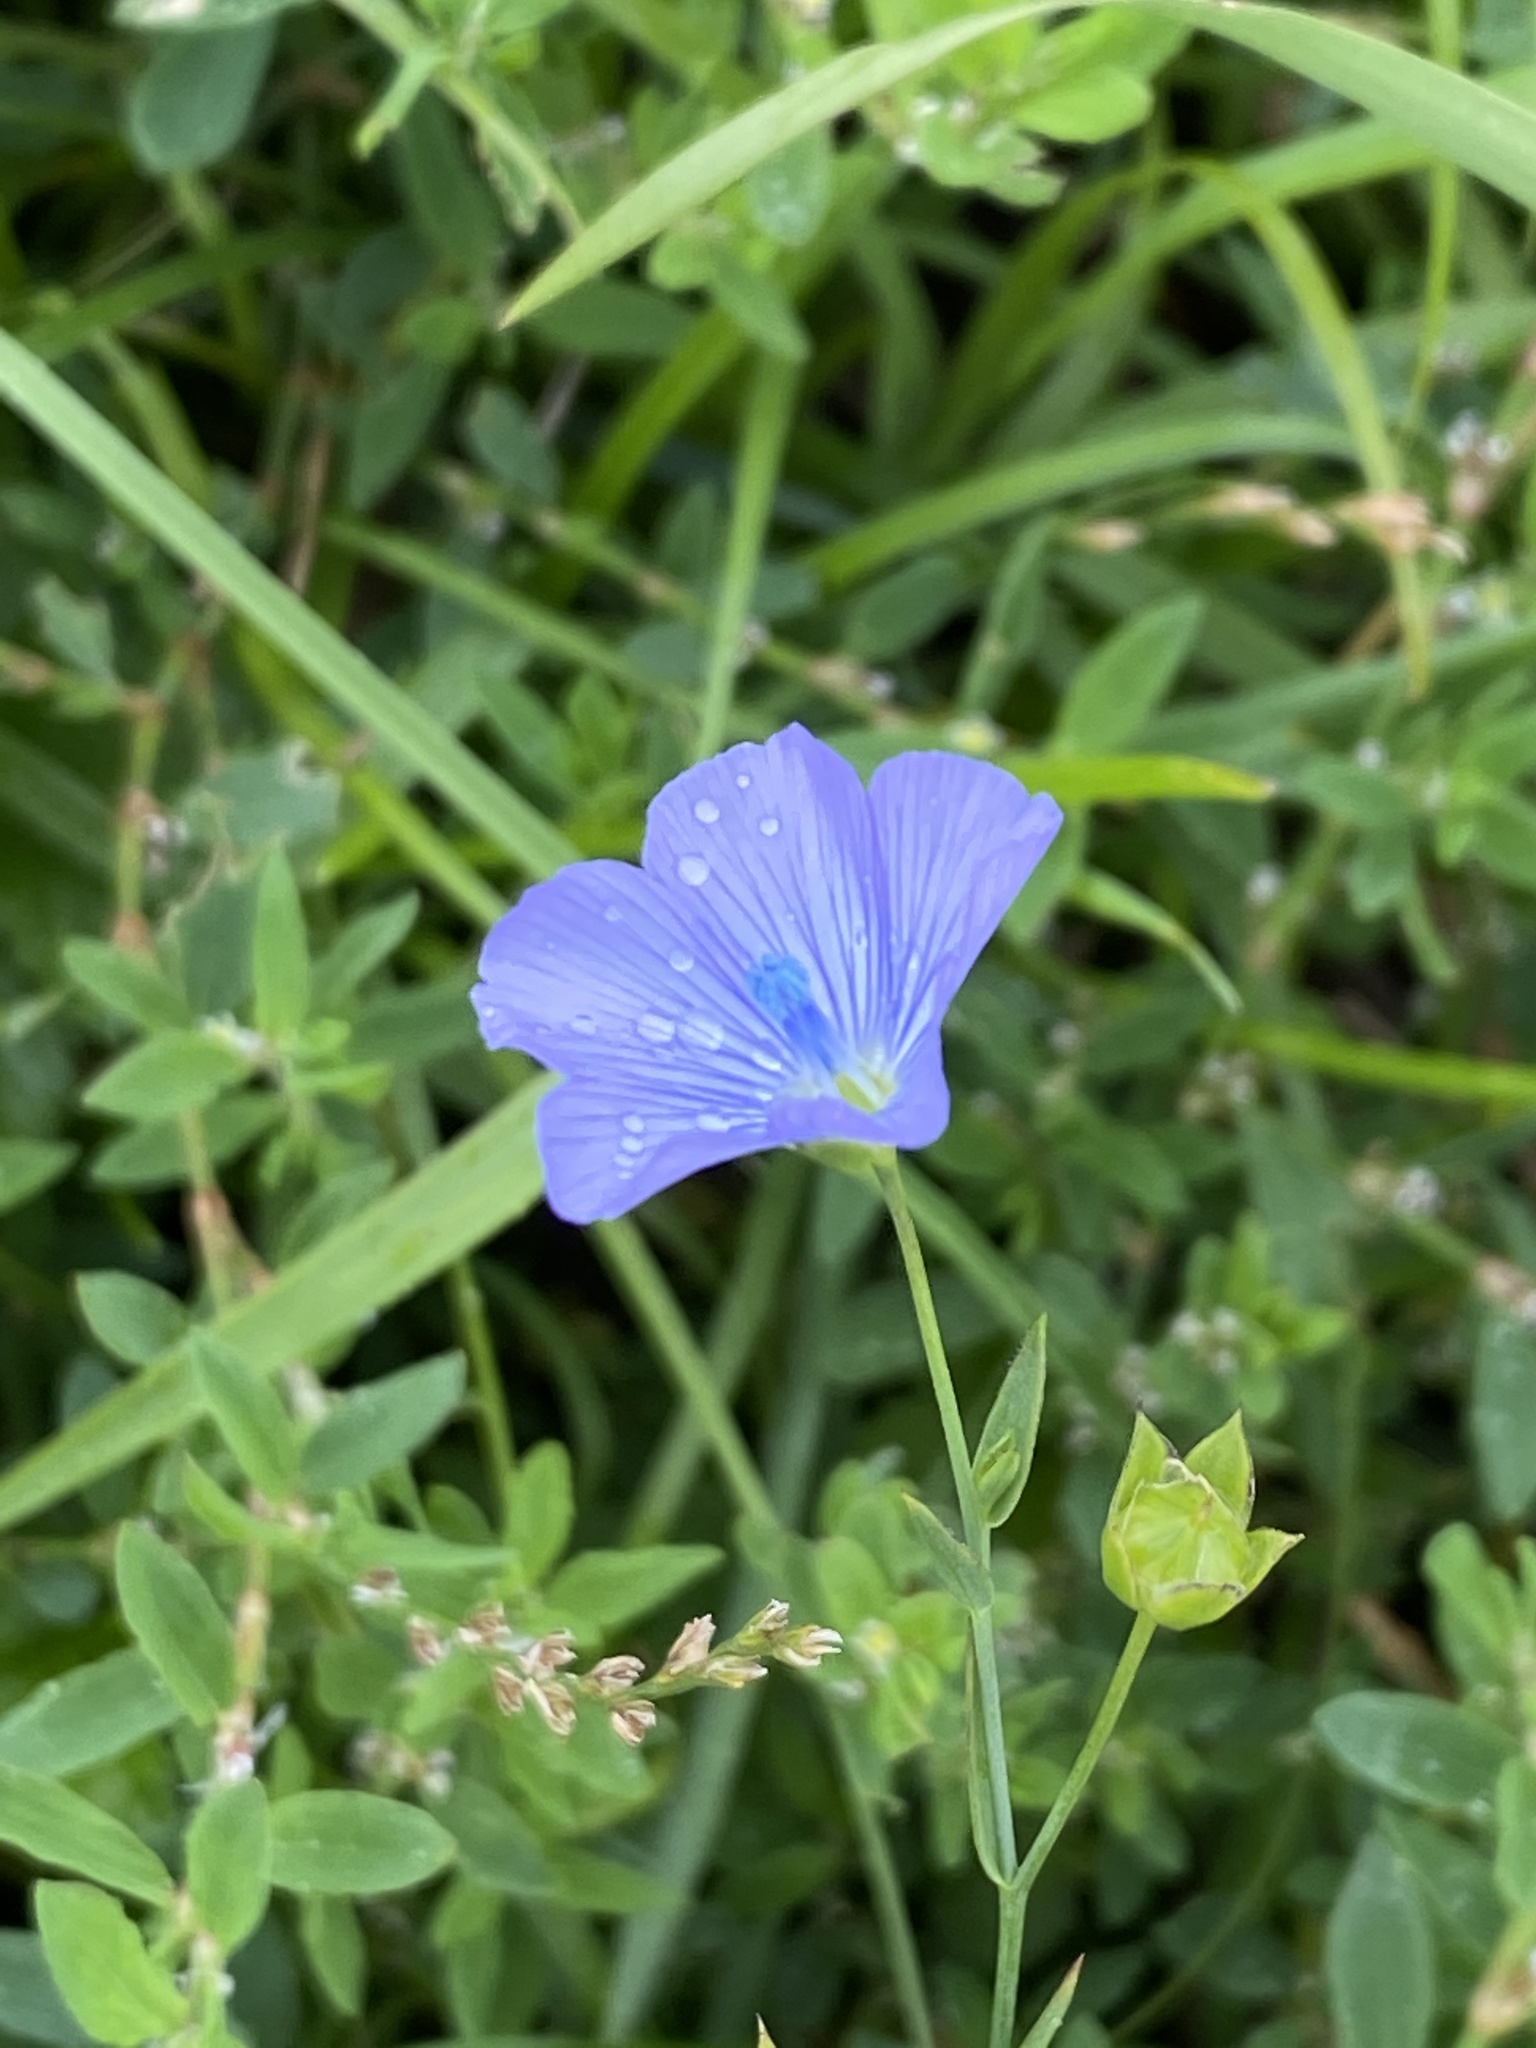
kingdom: Plantae
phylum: Tracheophyta
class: Magnoliopsida
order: Malpighiales
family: Linaceae
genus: Linum
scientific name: Linum usitatissimum
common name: Flax
